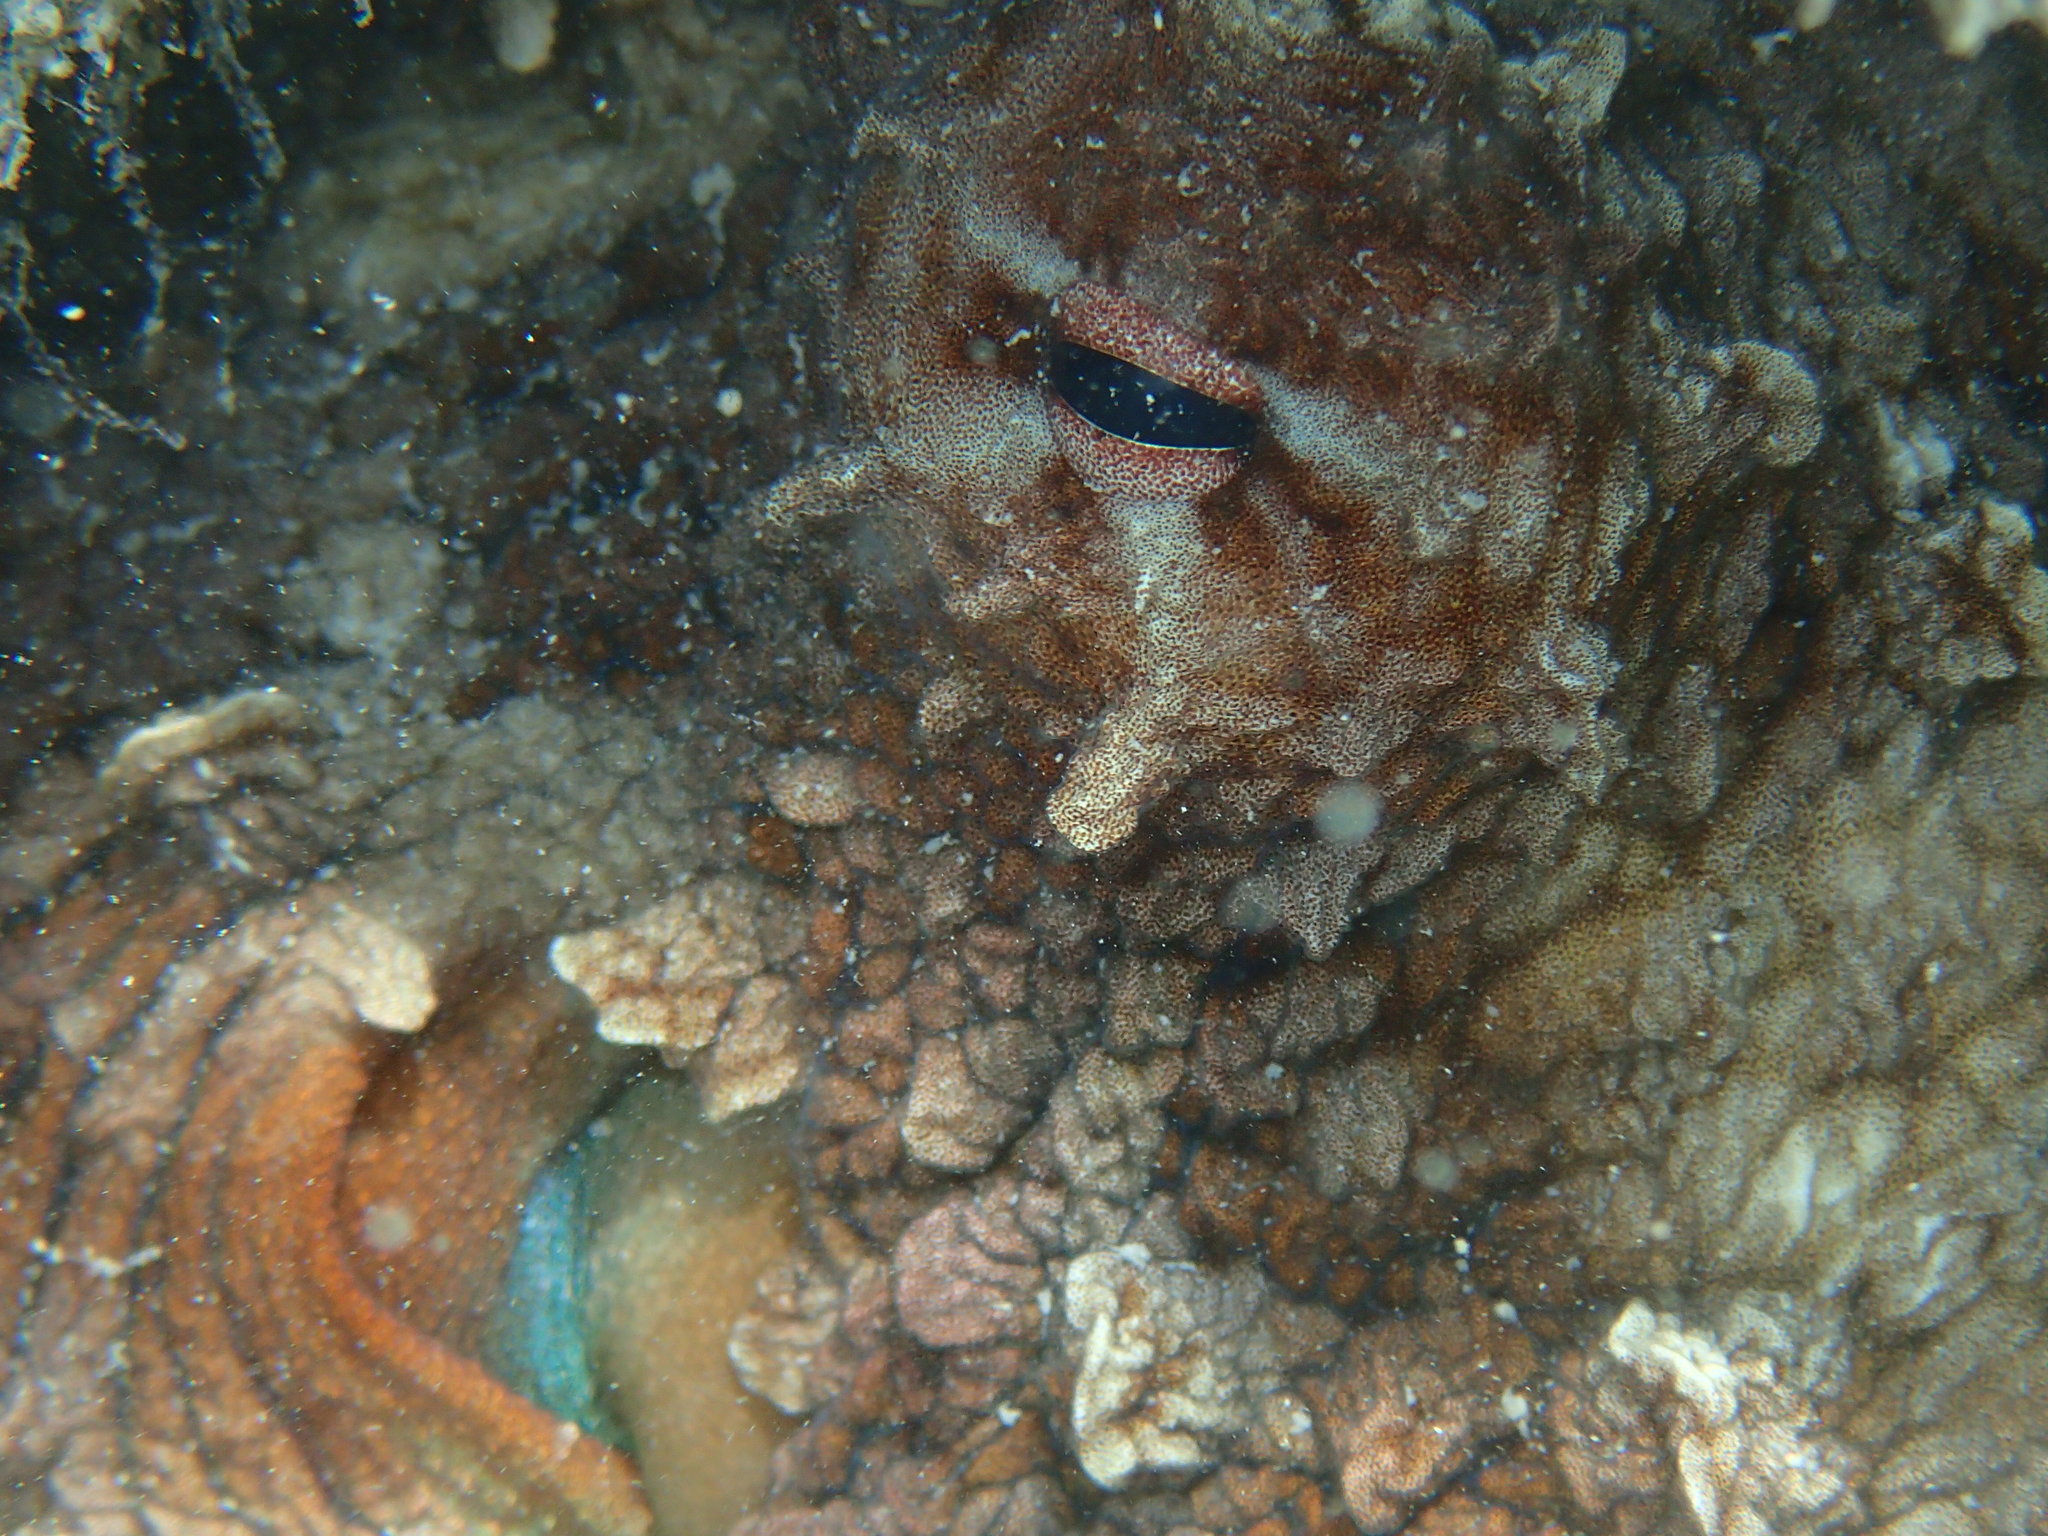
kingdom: Animalia
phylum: Mollusca
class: Cephalopoda
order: Octopoda
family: Octopodidae
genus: Octopus
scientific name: Octopus cyanea
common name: Cyane's octopus
